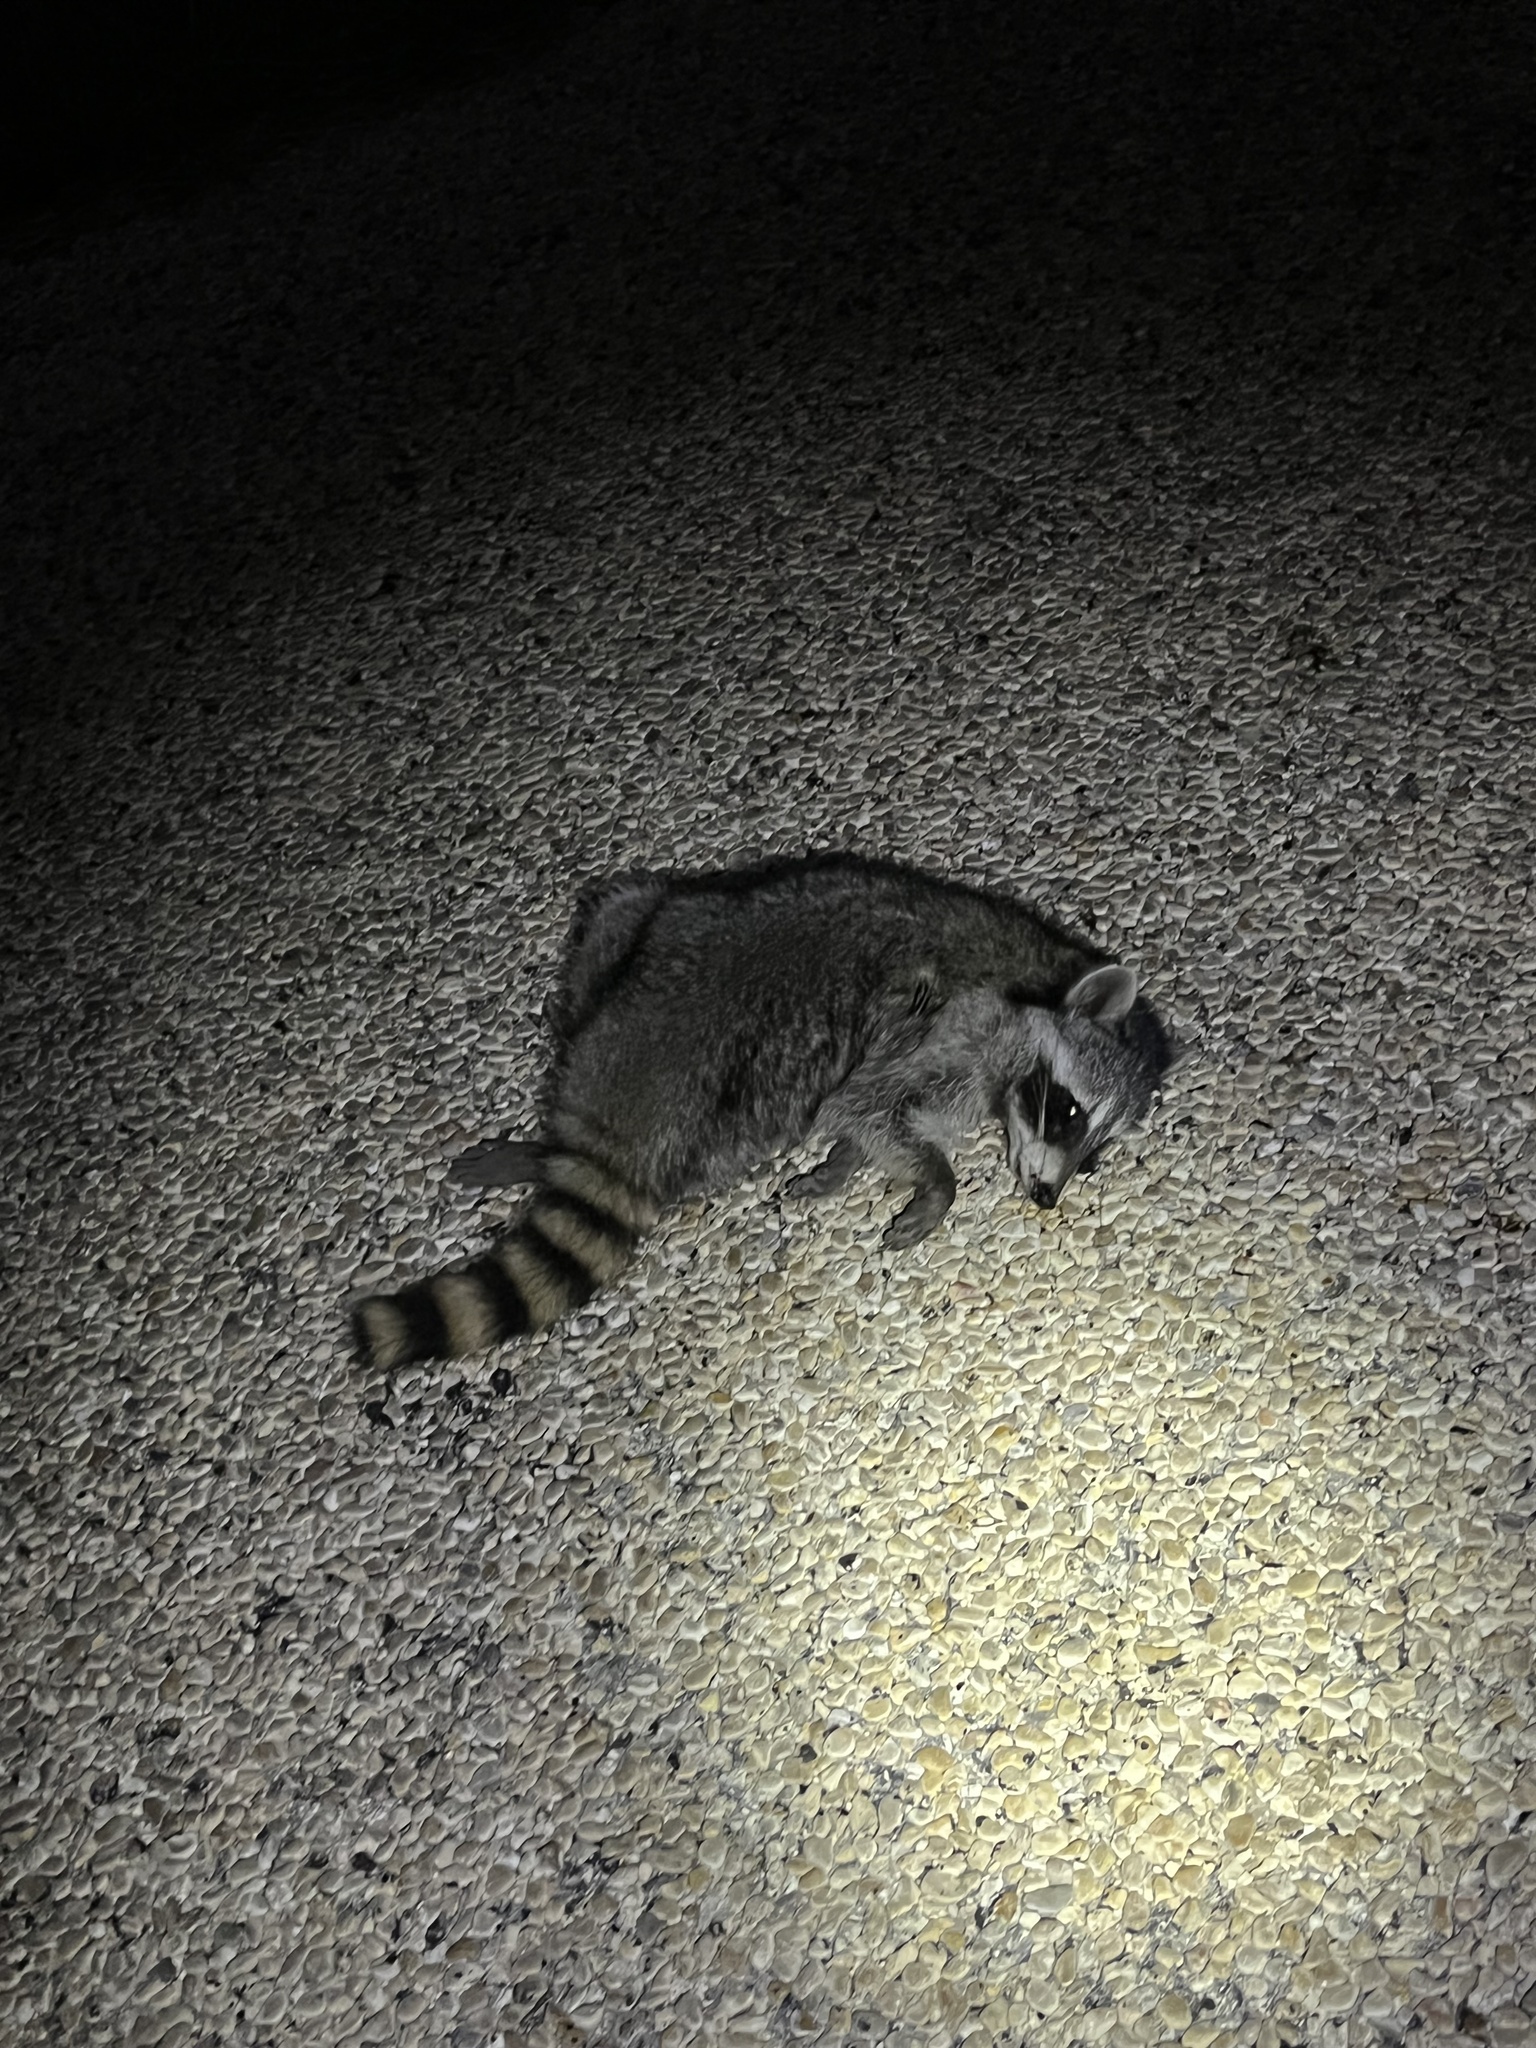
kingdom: Animalia
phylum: Chordata
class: Mammalia
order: Carnivora
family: Procyonidae
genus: Procyon
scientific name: Procyon lotor
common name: Raccoon
